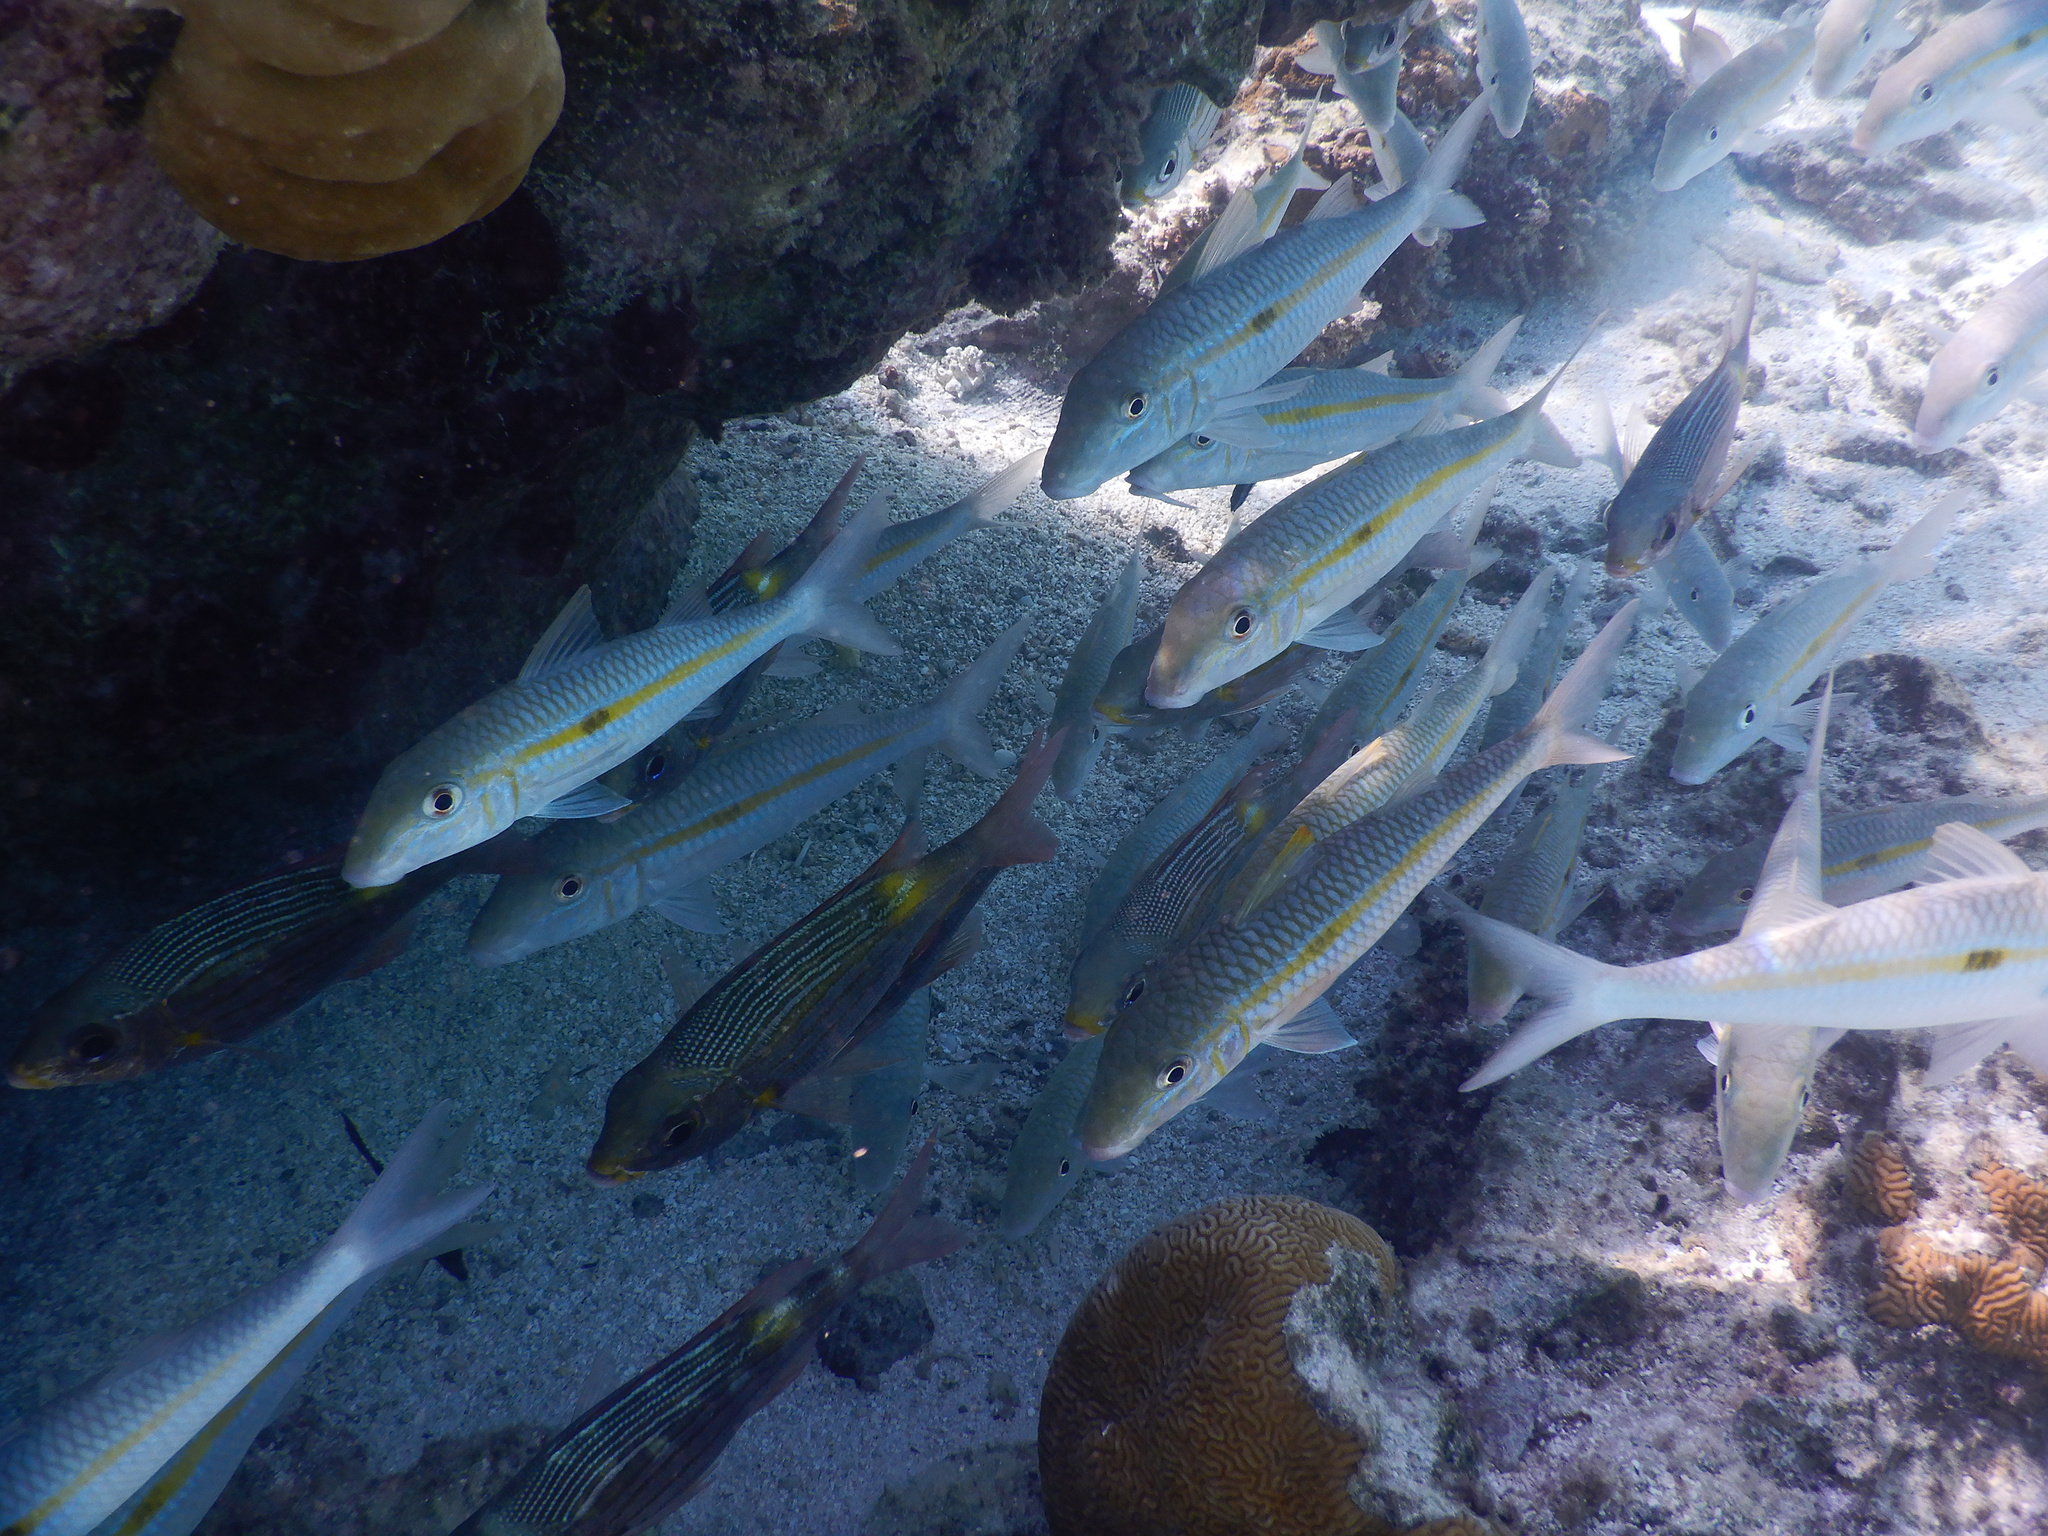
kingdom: Animalia
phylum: Chordata
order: Perciformes
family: Mullidae
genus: Mulloidichthys
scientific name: Mulloidichthys flavolineatus
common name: Yellowstripe goatfish
